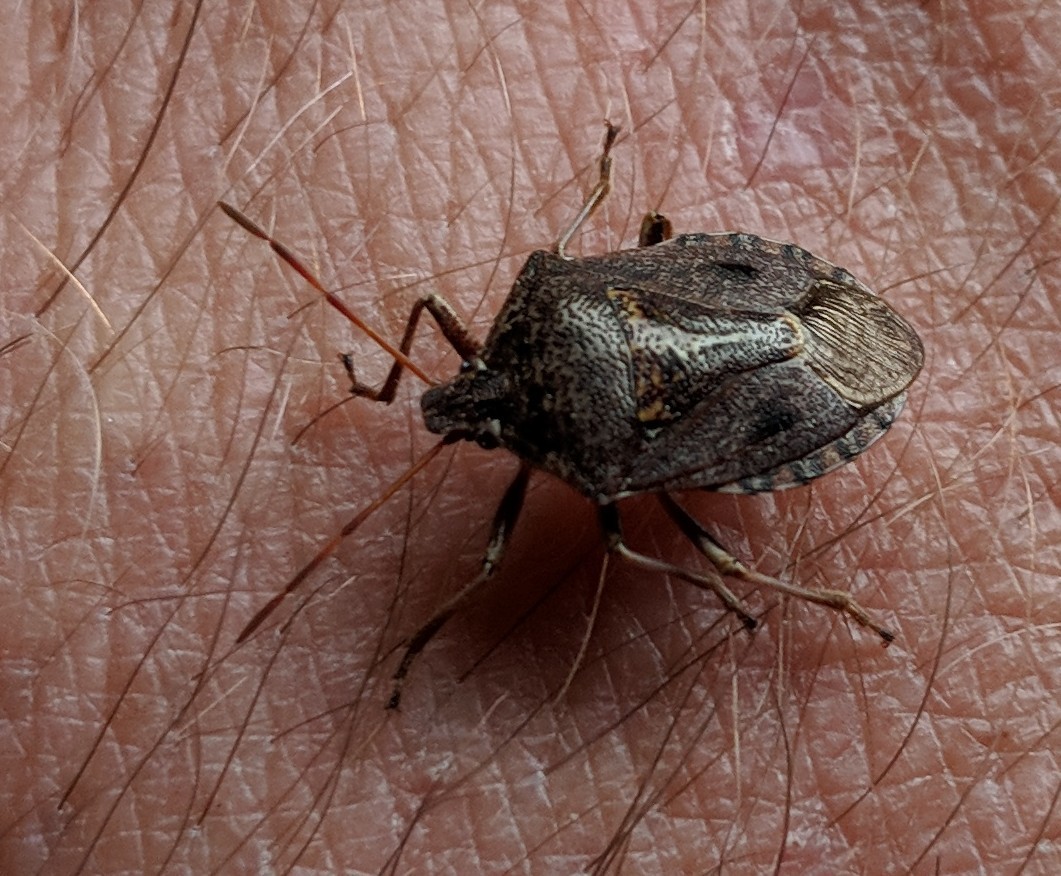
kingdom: Animalia
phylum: Arthropoda
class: Insecta
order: Hemiptera
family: Pentatomidae
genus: Cermatulus
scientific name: Cermatulus nasalis
